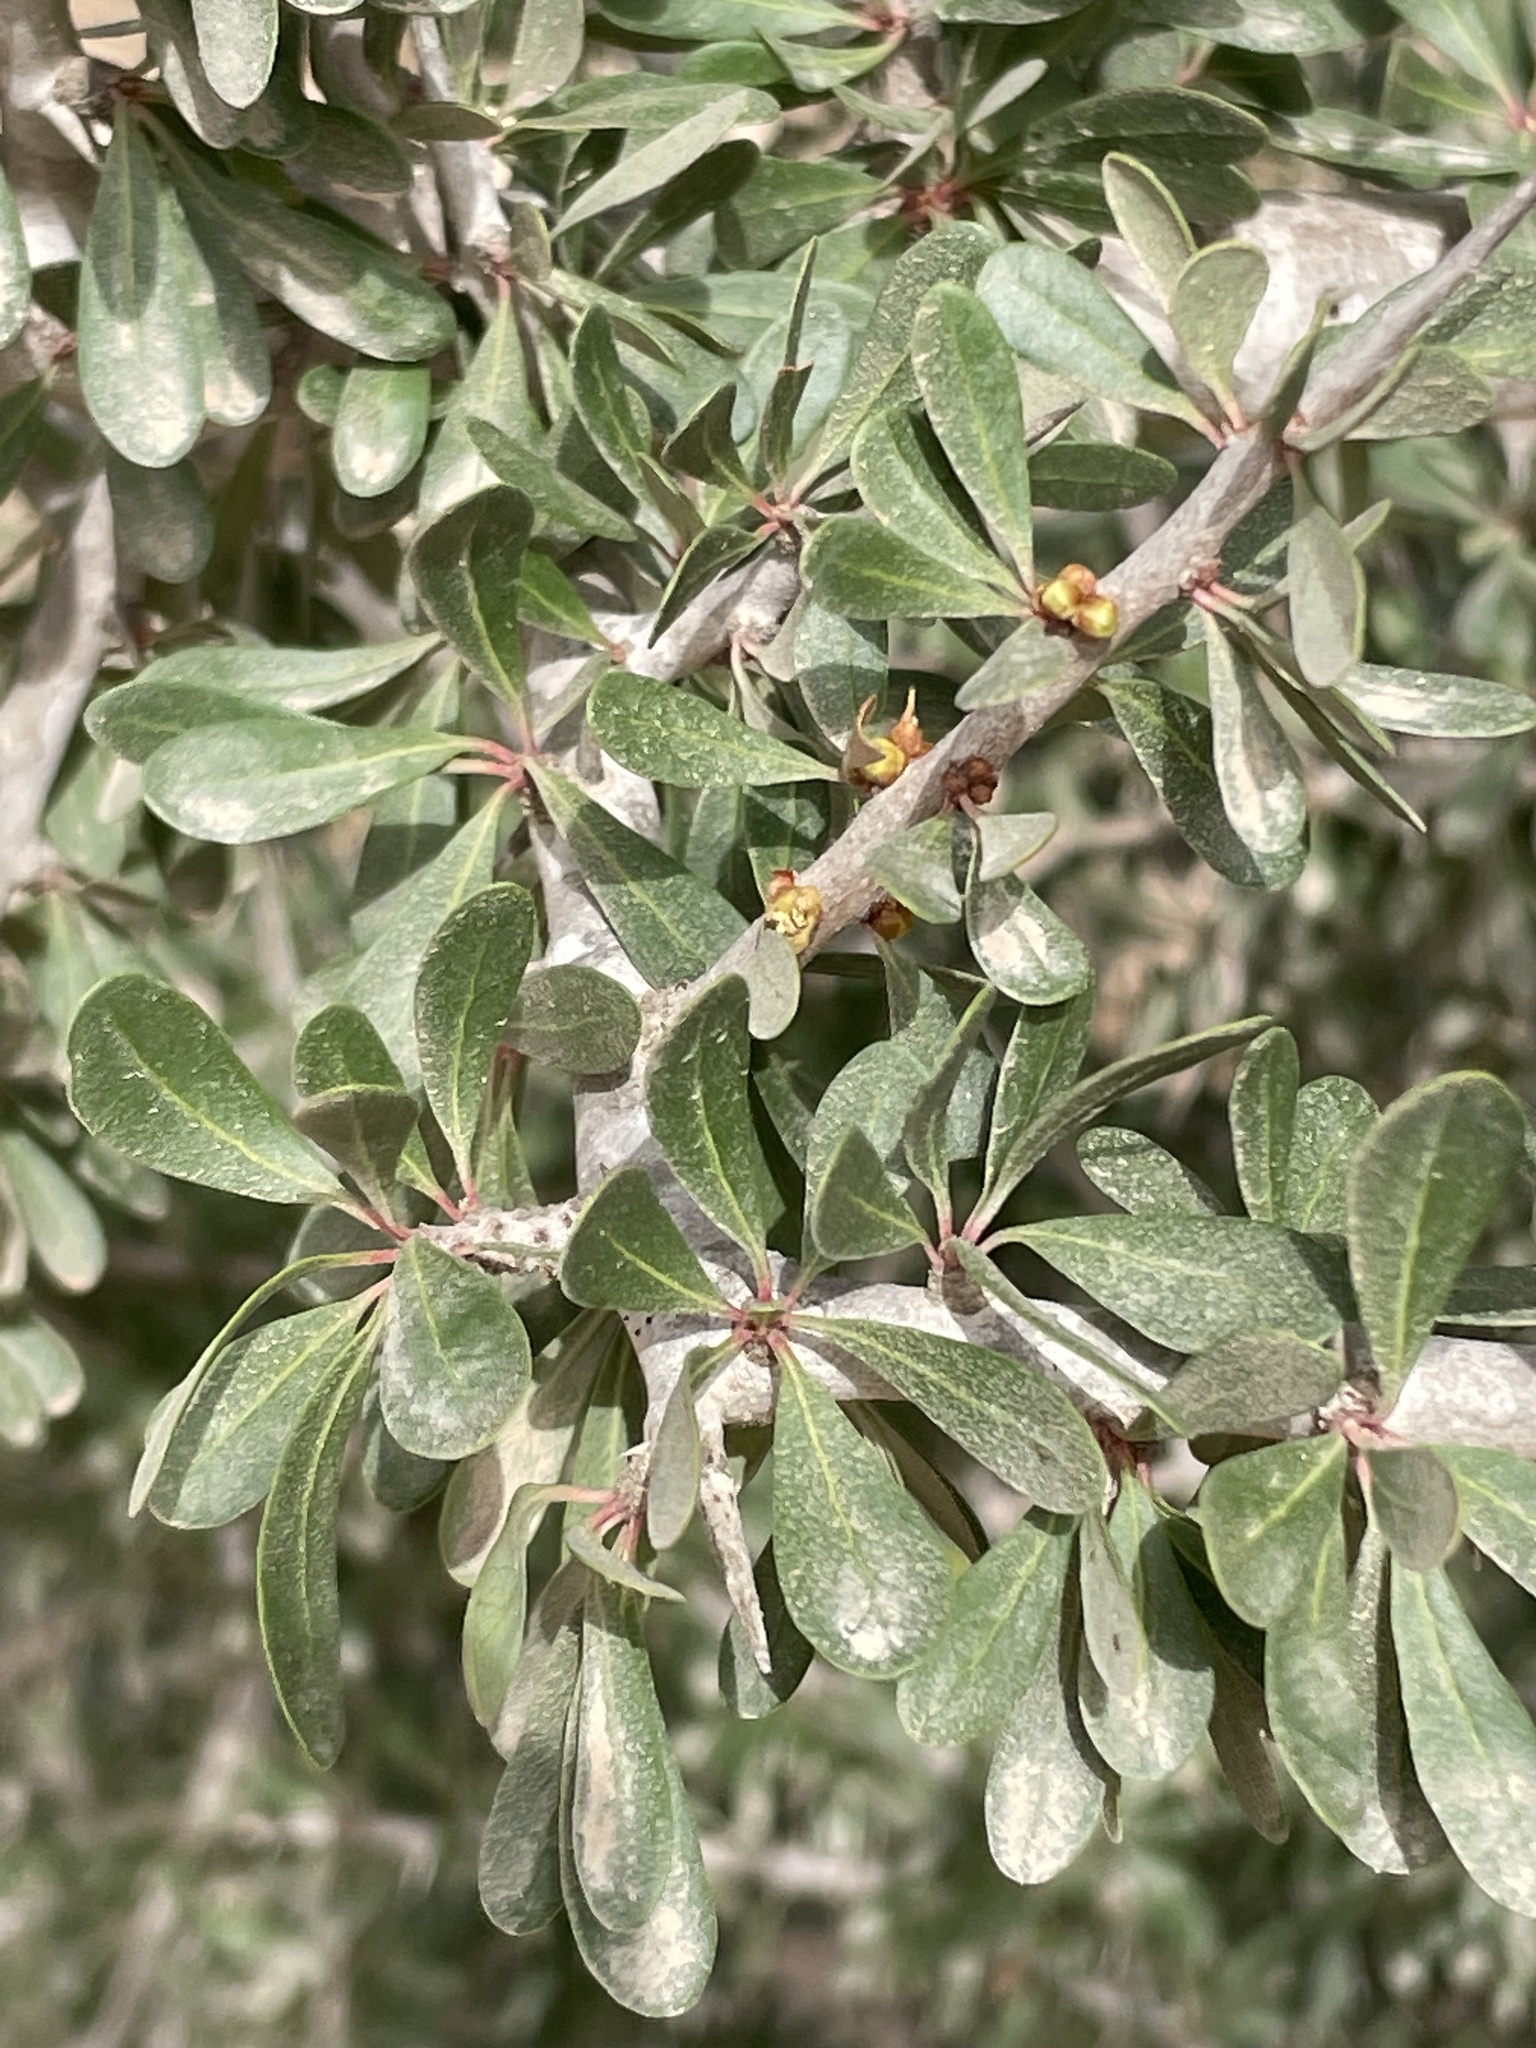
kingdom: Plantae
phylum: Tracheophyta
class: Magnoliopsida
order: Ericales
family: Sapotaceae
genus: Sideroxylon
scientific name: Sideroxylon spinosum
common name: Argan
